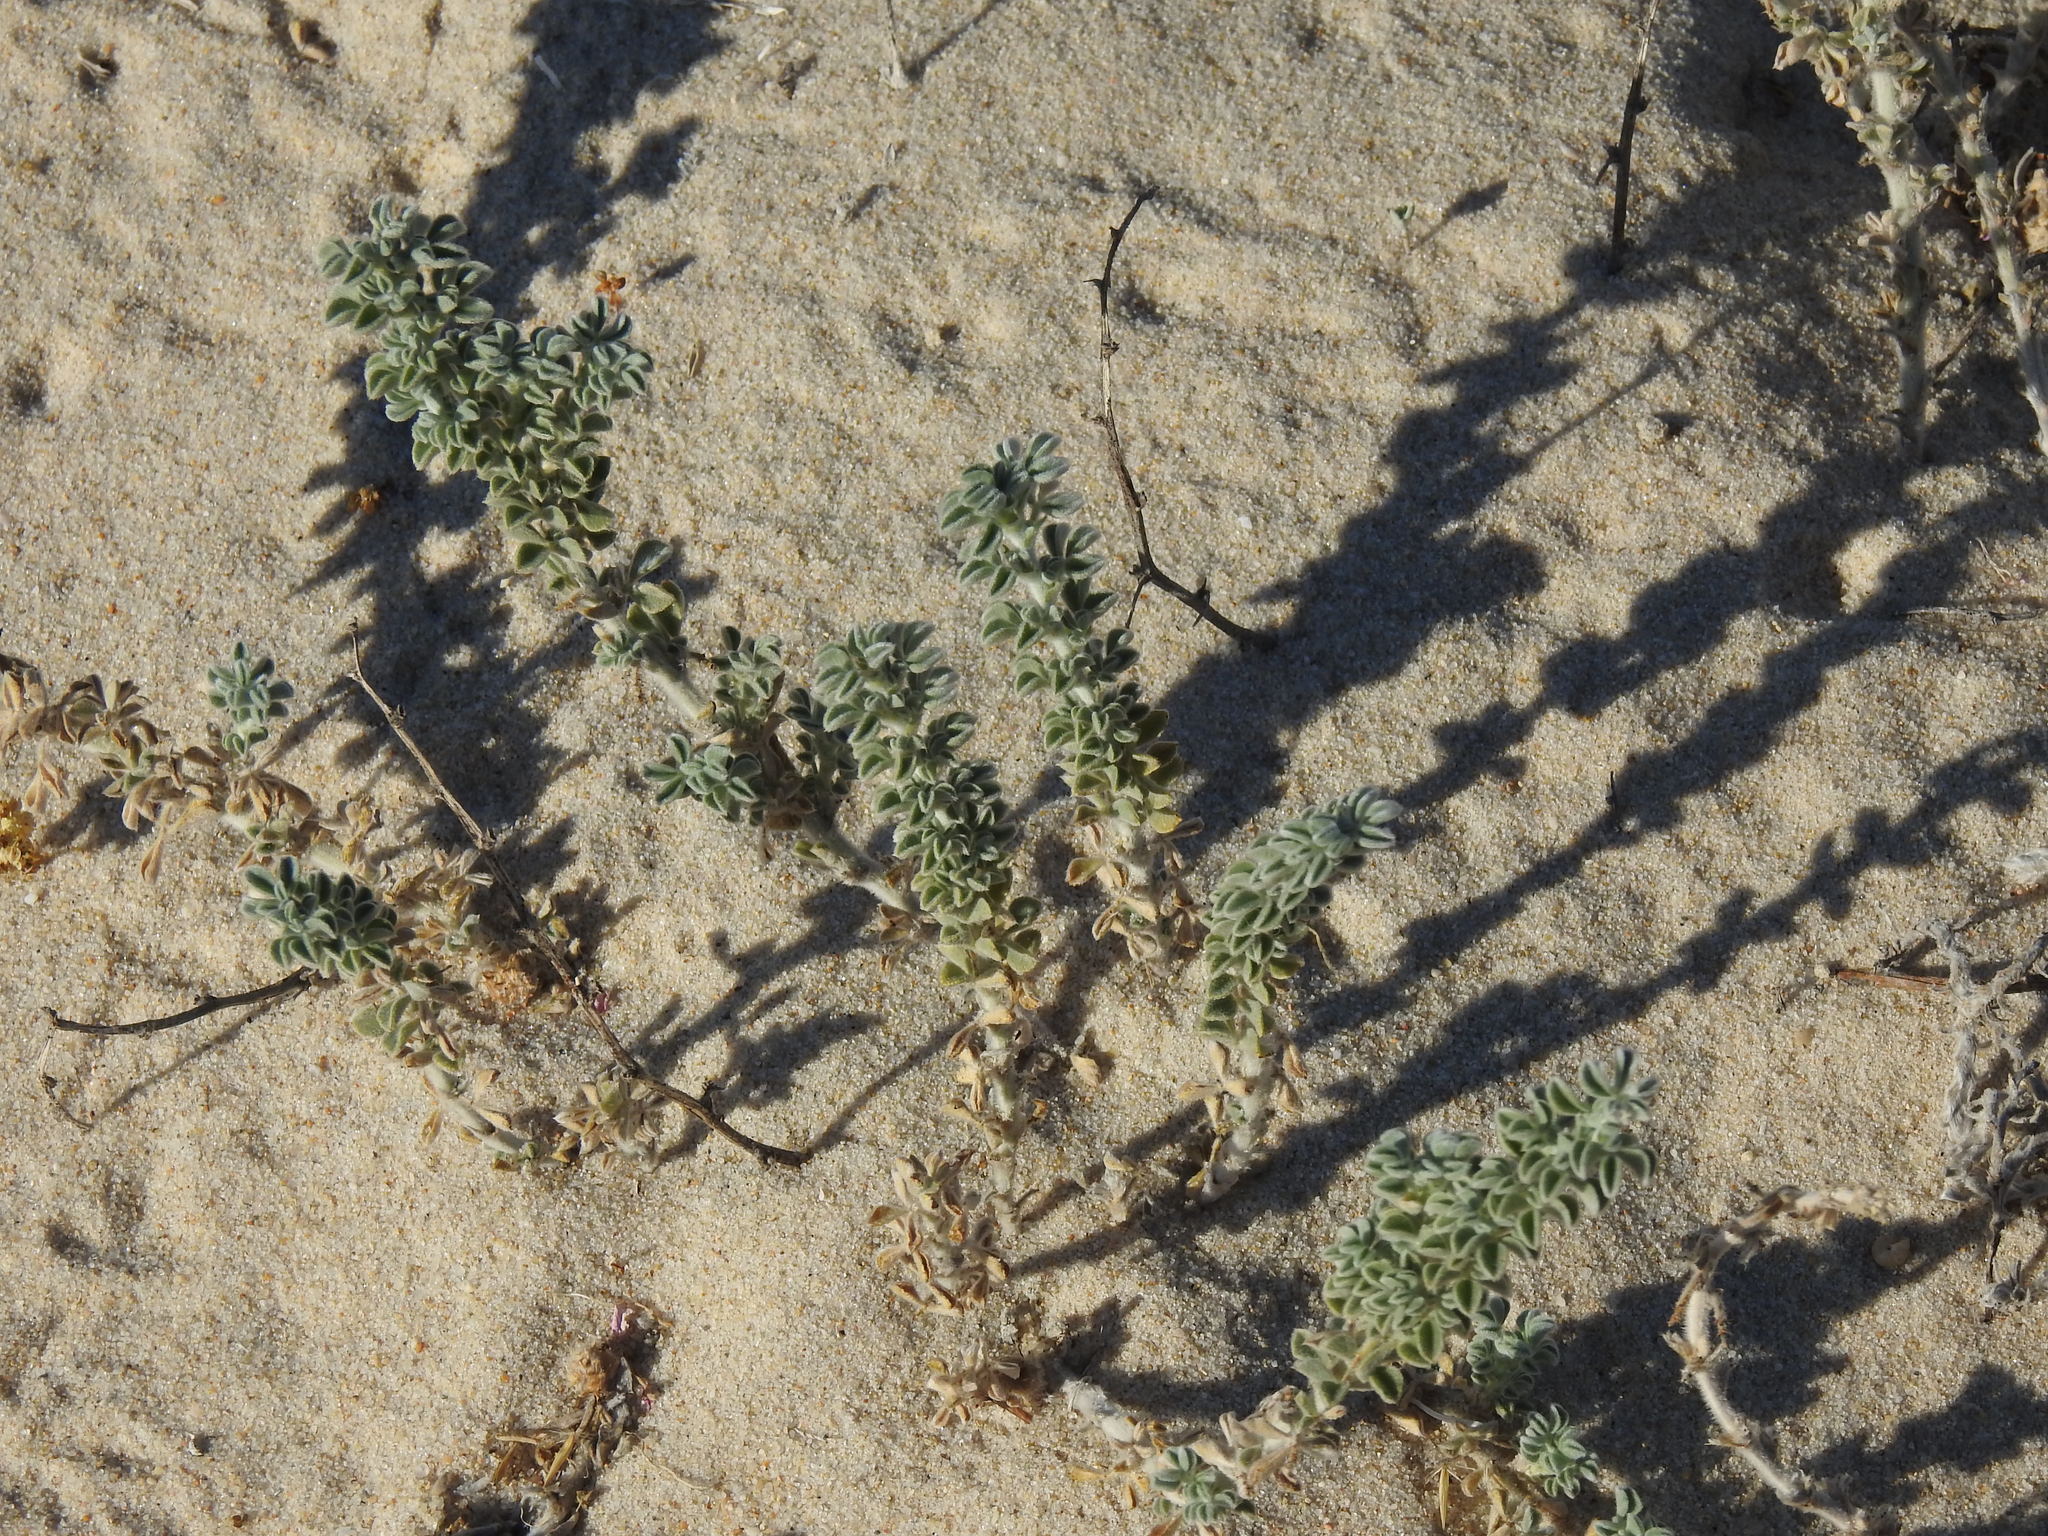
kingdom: Plantae
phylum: Tracheophyta
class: Magnoliopsida
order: Fabales
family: Fabaceae
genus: Medicago
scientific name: Medicago marina
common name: Sea medick
